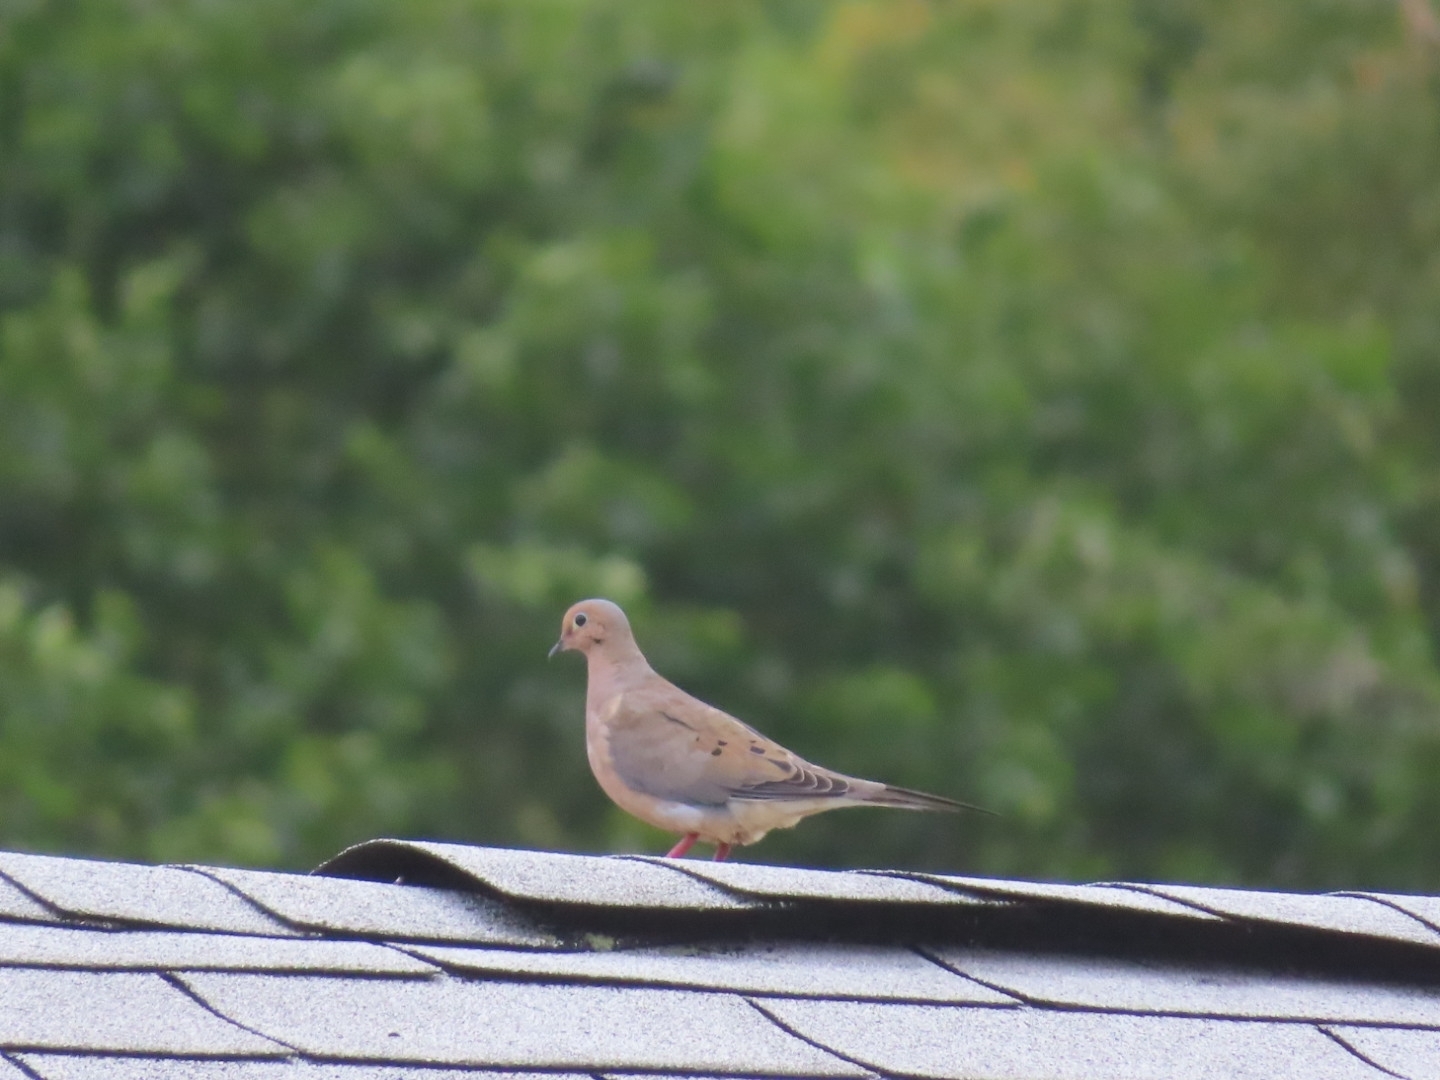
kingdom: Animalia
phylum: Chordata
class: Aves
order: Columbiformes
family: Columbidae
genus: Zenaida
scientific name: Zenaida macroura
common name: Mourning dove
